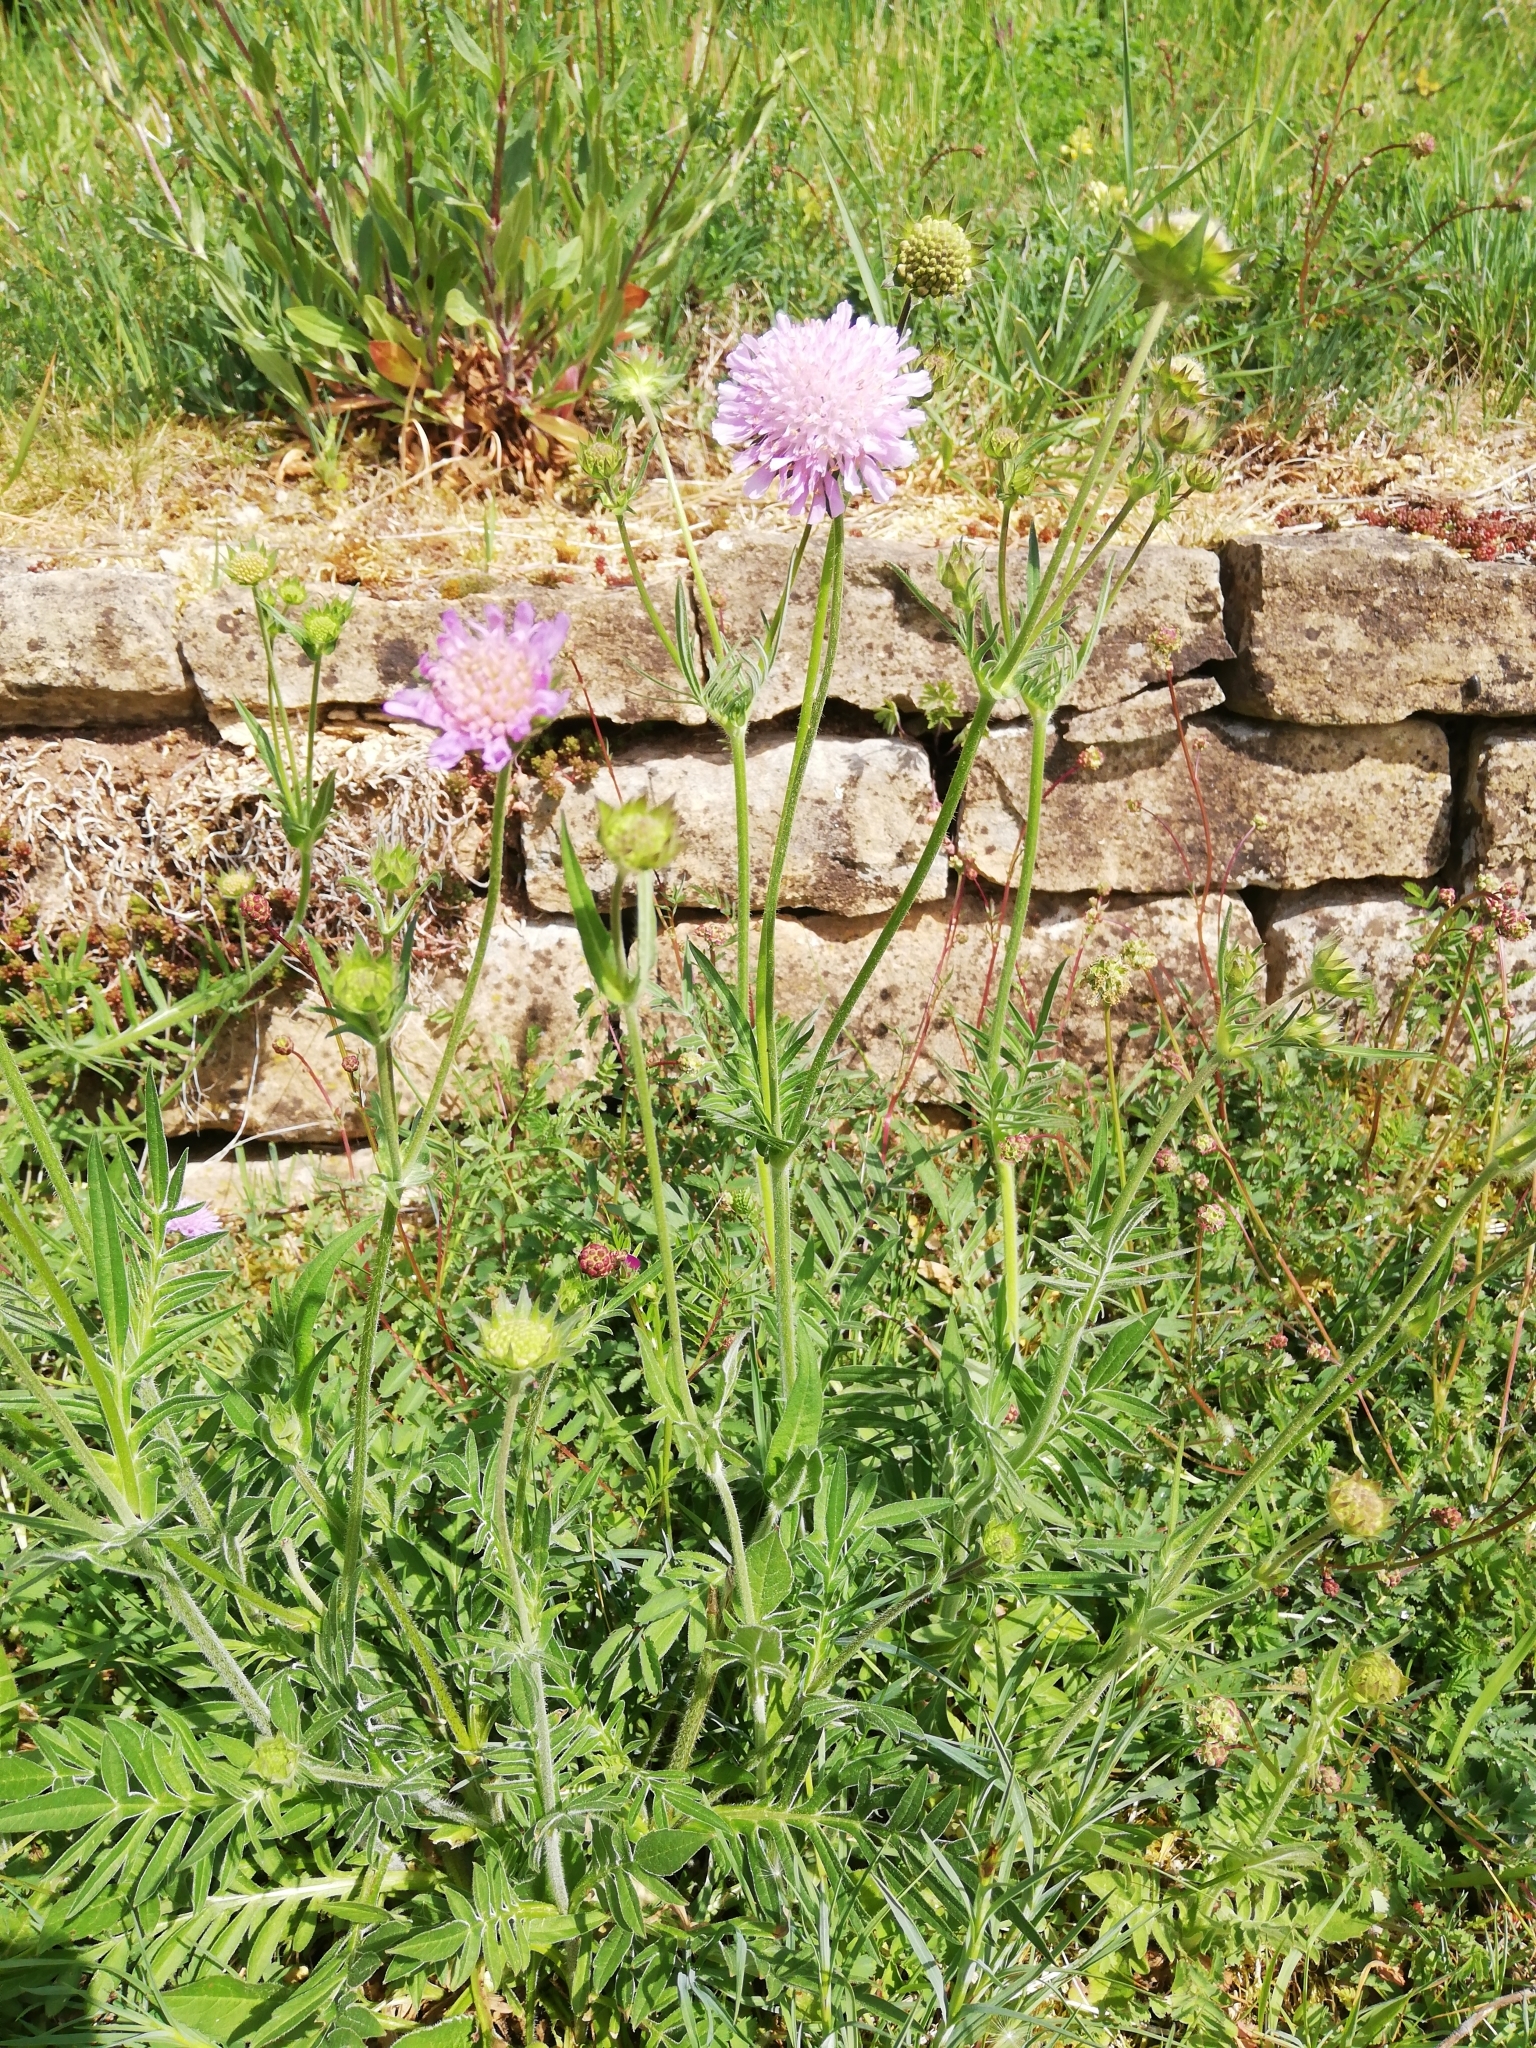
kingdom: Plantae
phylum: Tracheophyta
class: Magnoliopsida
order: Dipsacales
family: Caprifoliaceae
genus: Knautia
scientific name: Knautia arvensis
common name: Field scabiosa
